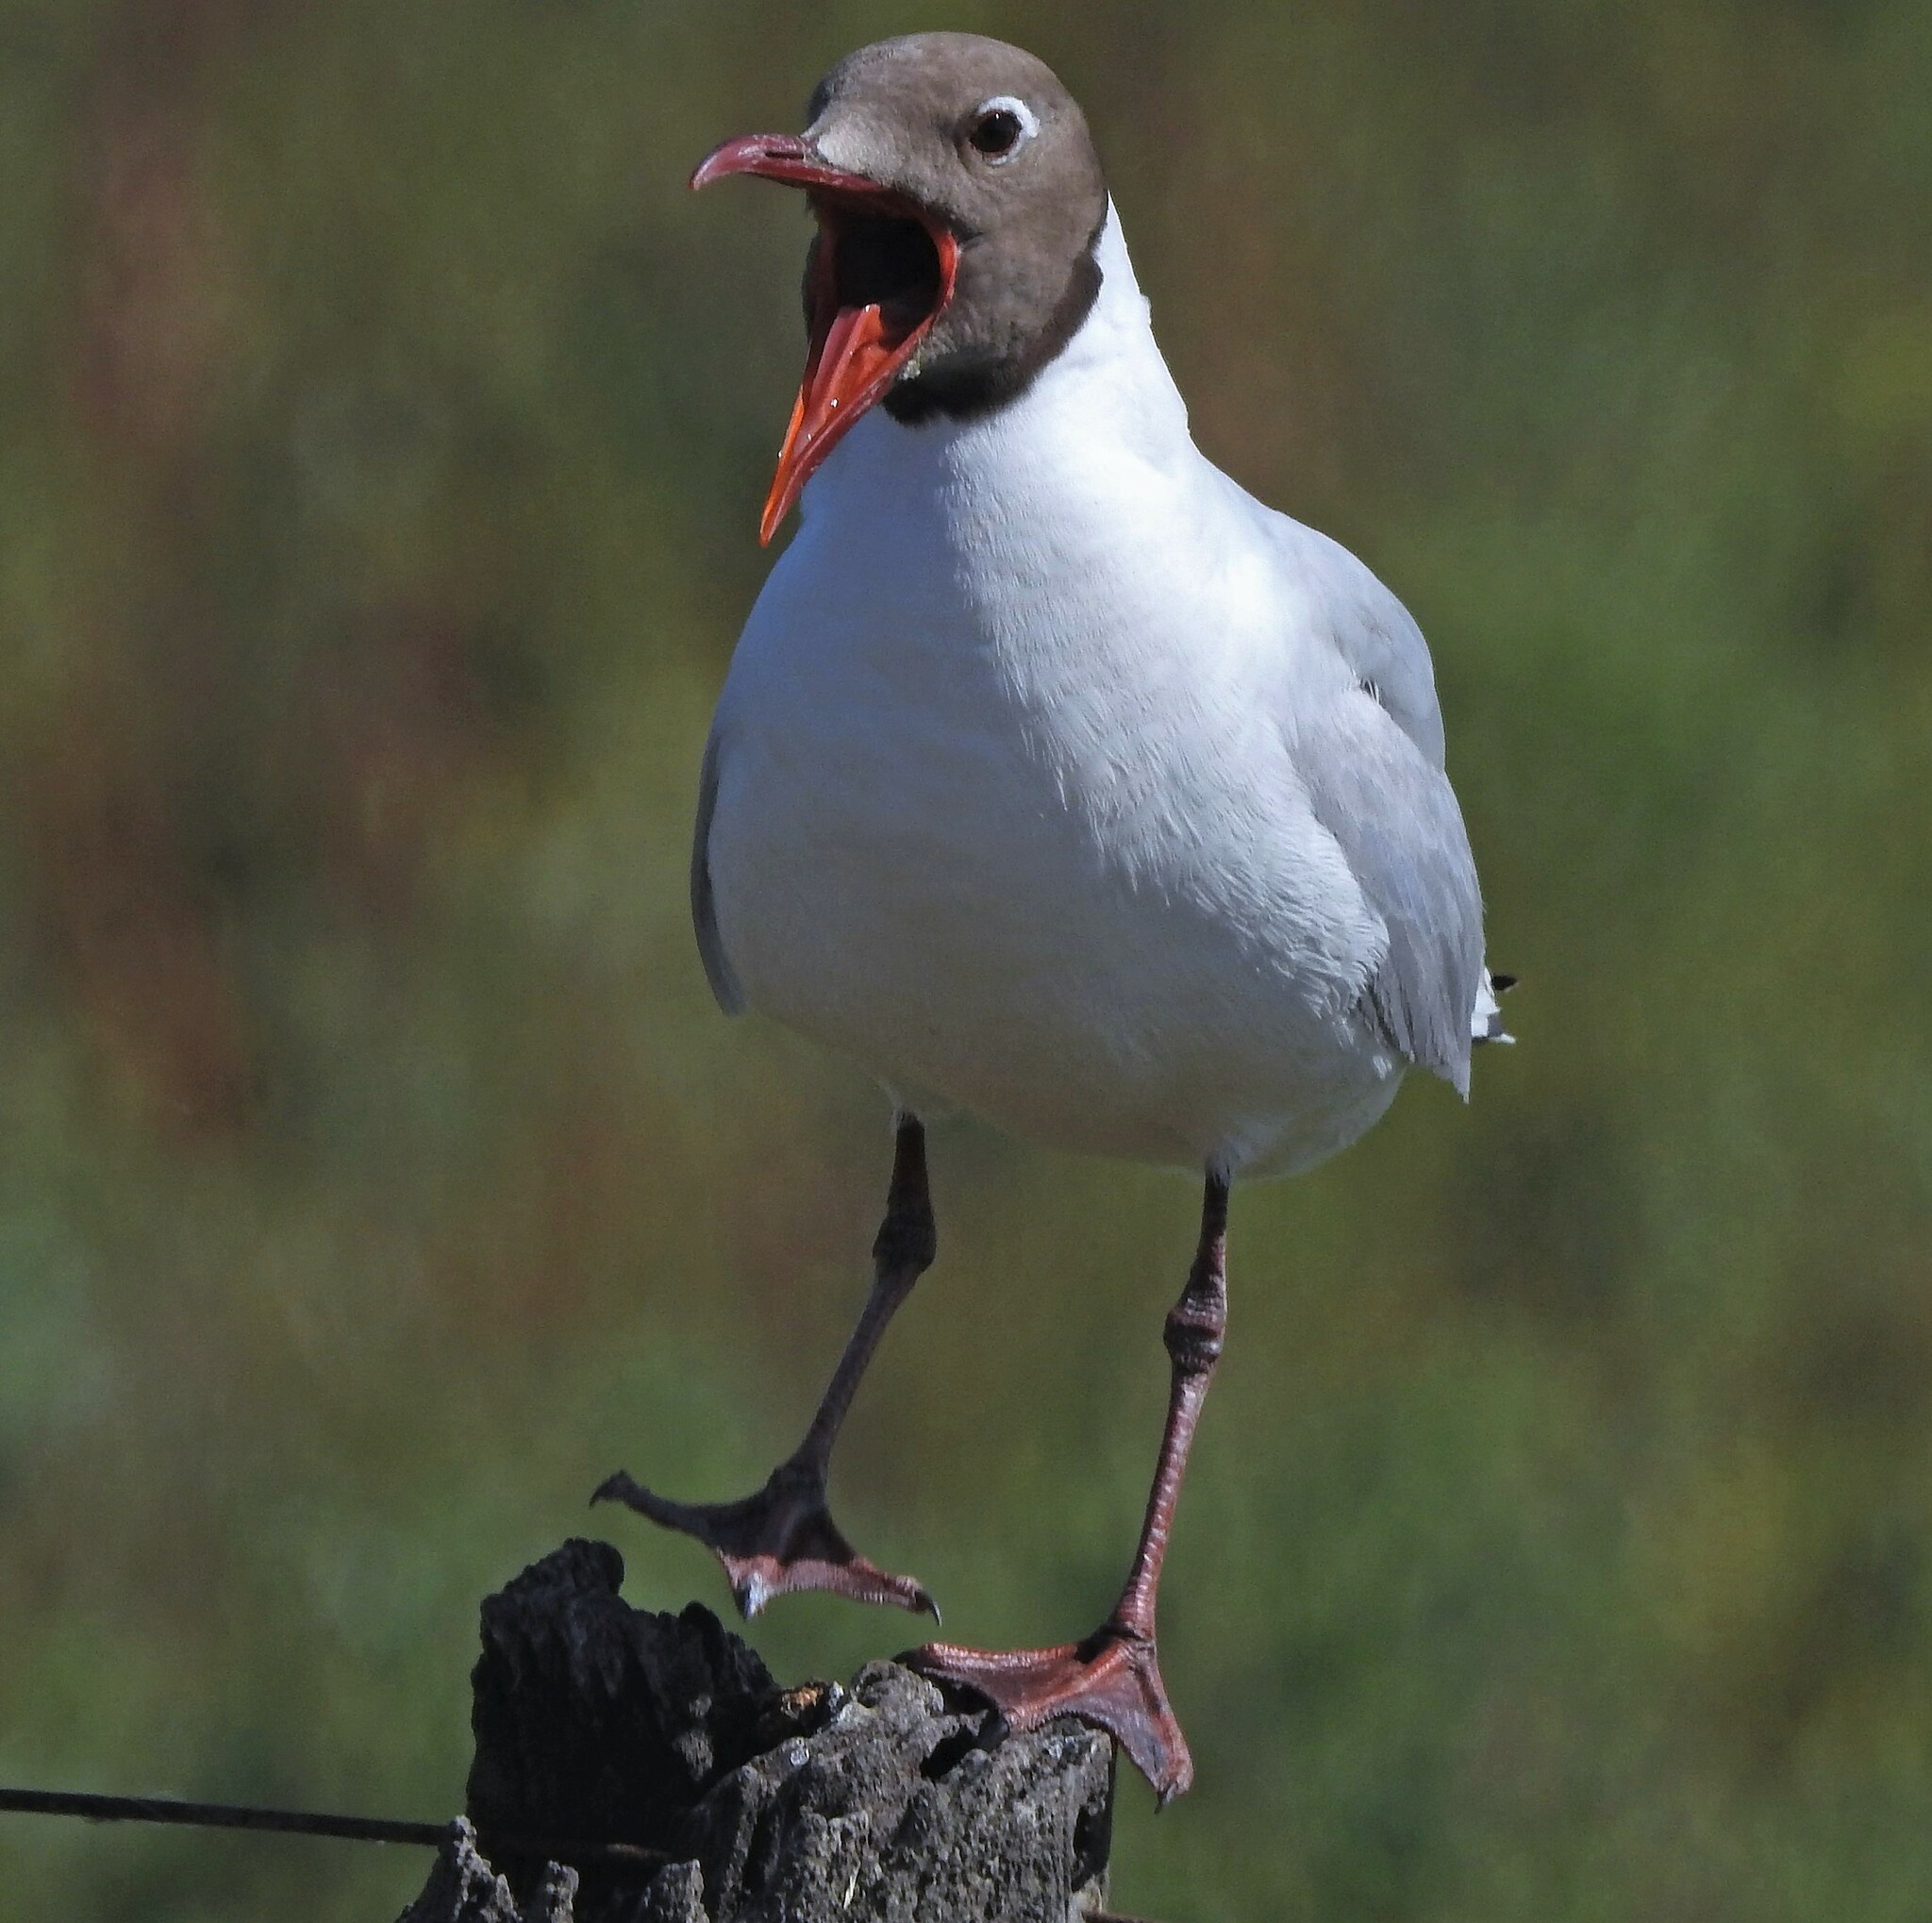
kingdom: Animalia
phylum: Chordata
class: Aves
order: Charadriiformes
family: Laridae
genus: Chroicocephalus
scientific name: Chroicocephalus maculipennis
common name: Brown-hooded gull
